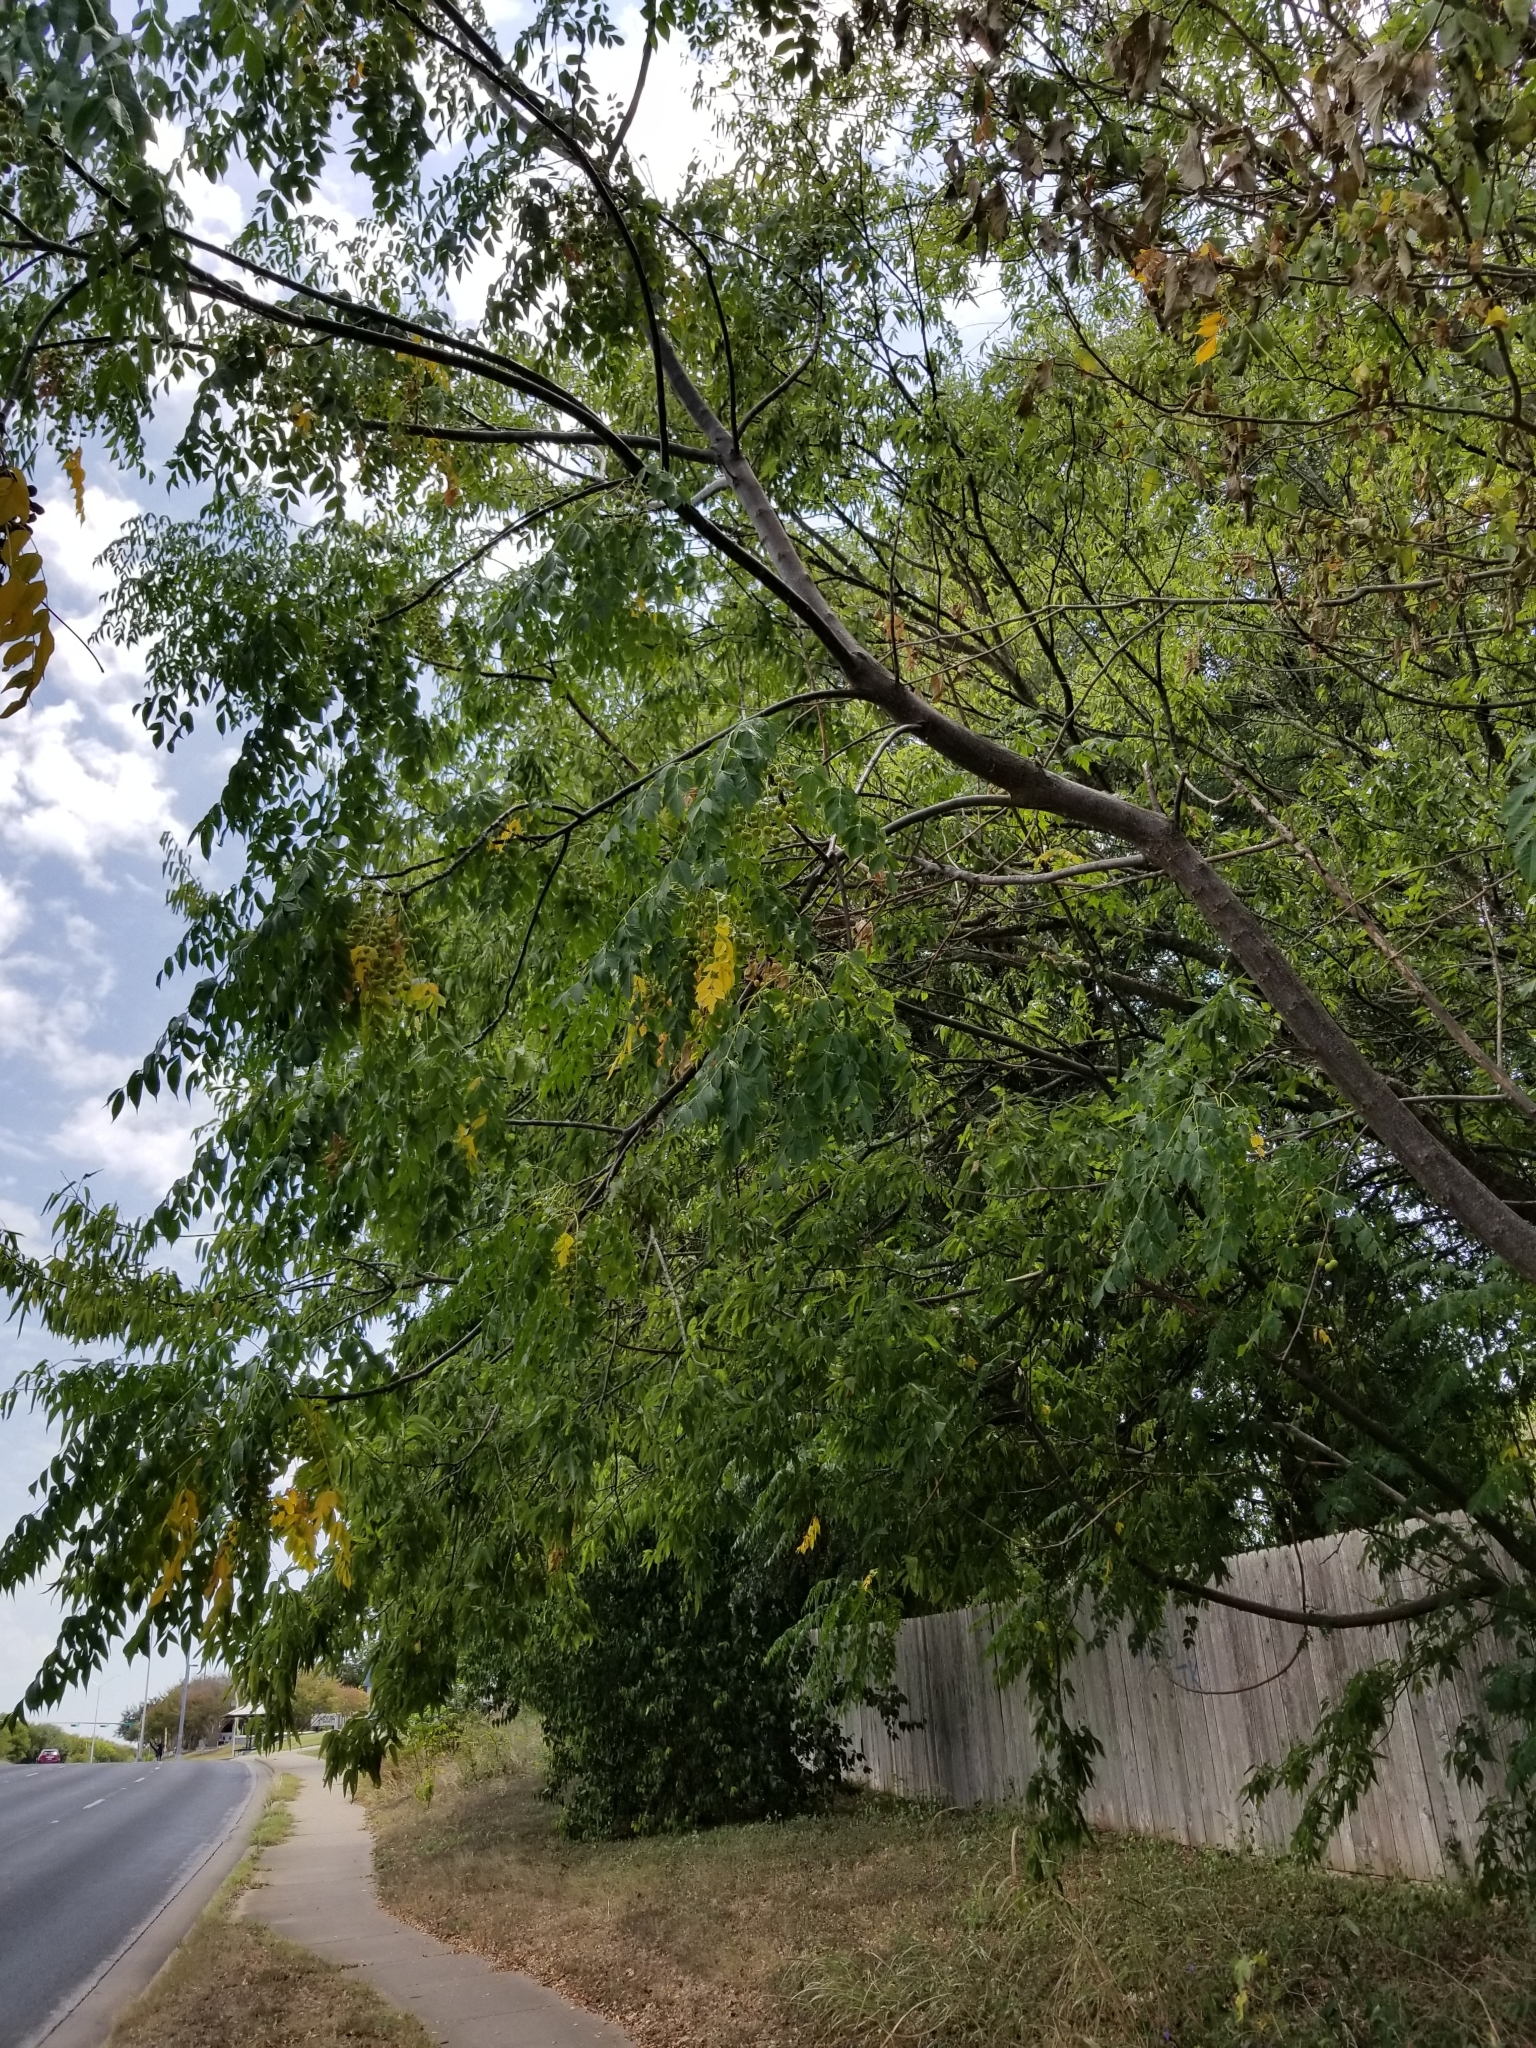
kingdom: Plantae
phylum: Tracheophyta
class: Magnoliopsida
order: Sapindales
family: Meliaceae
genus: Melia
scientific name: Melia azedarach
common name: Chinaberrytree
